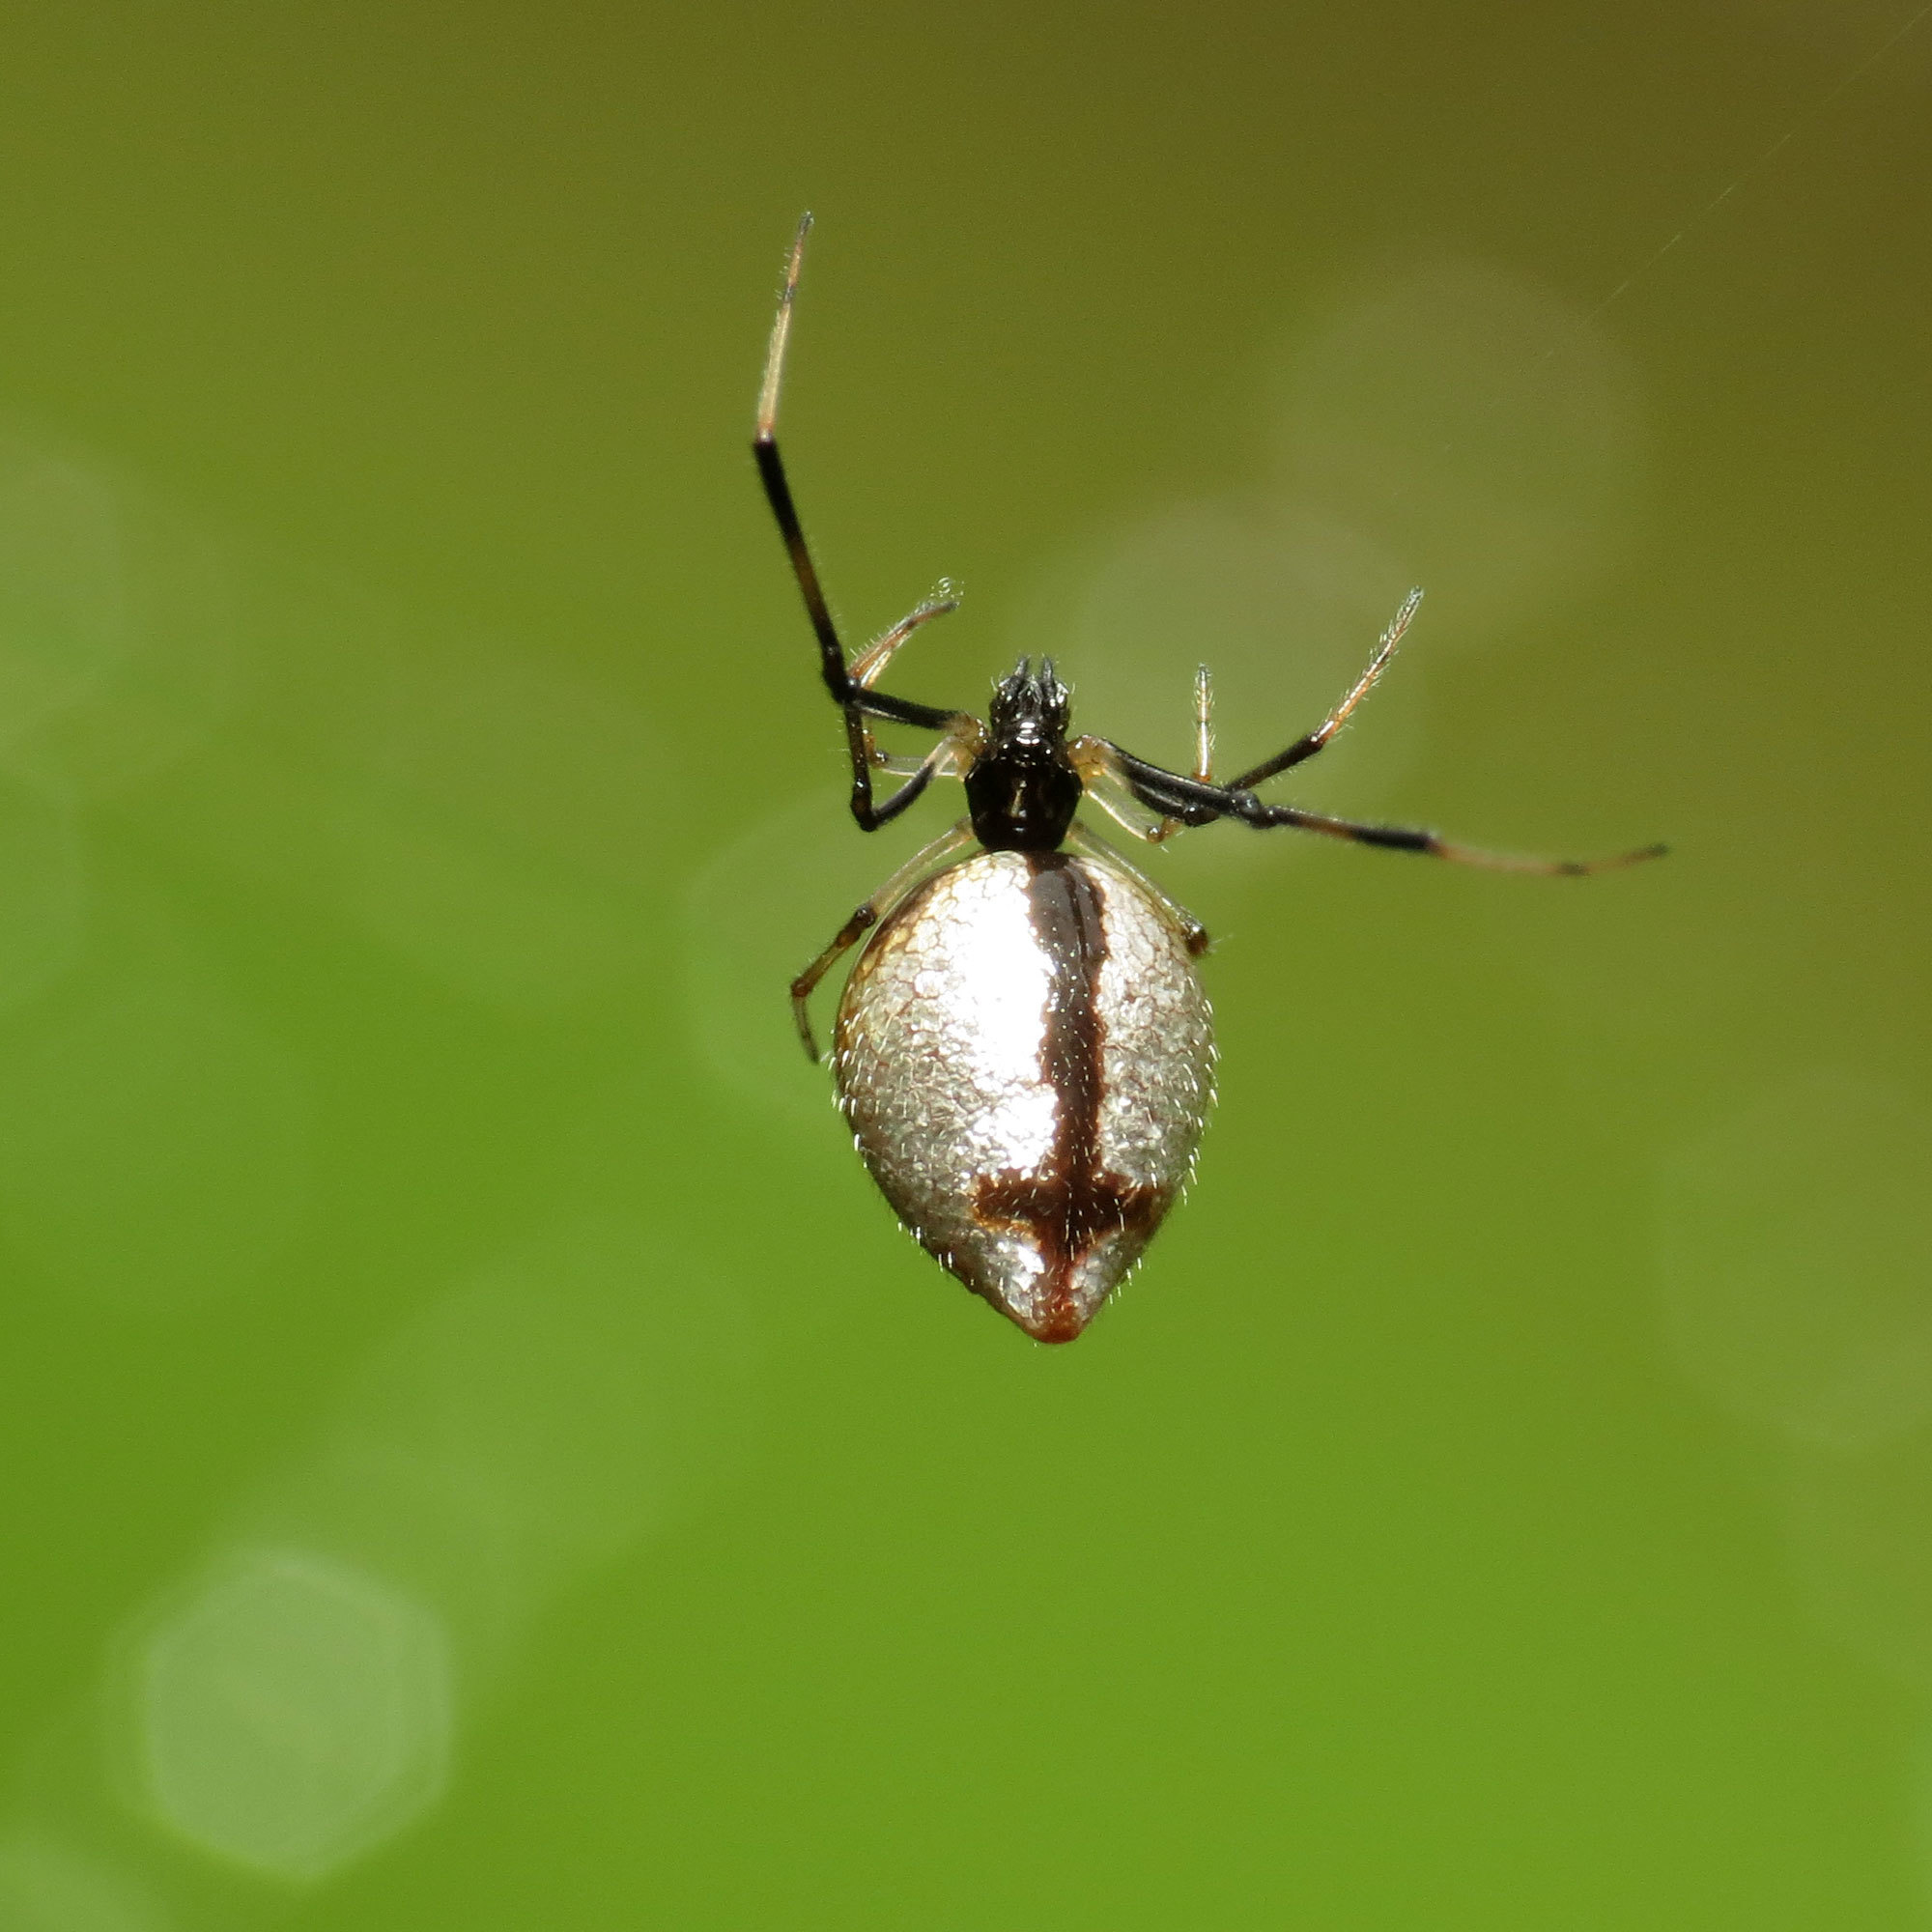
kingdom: Animalia
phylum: Arthropoda
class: Arachnida
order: Araneae
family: Theridiidae
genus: Argyrodes
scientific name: Argyrodes elevatus
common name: Cobweb spiders
